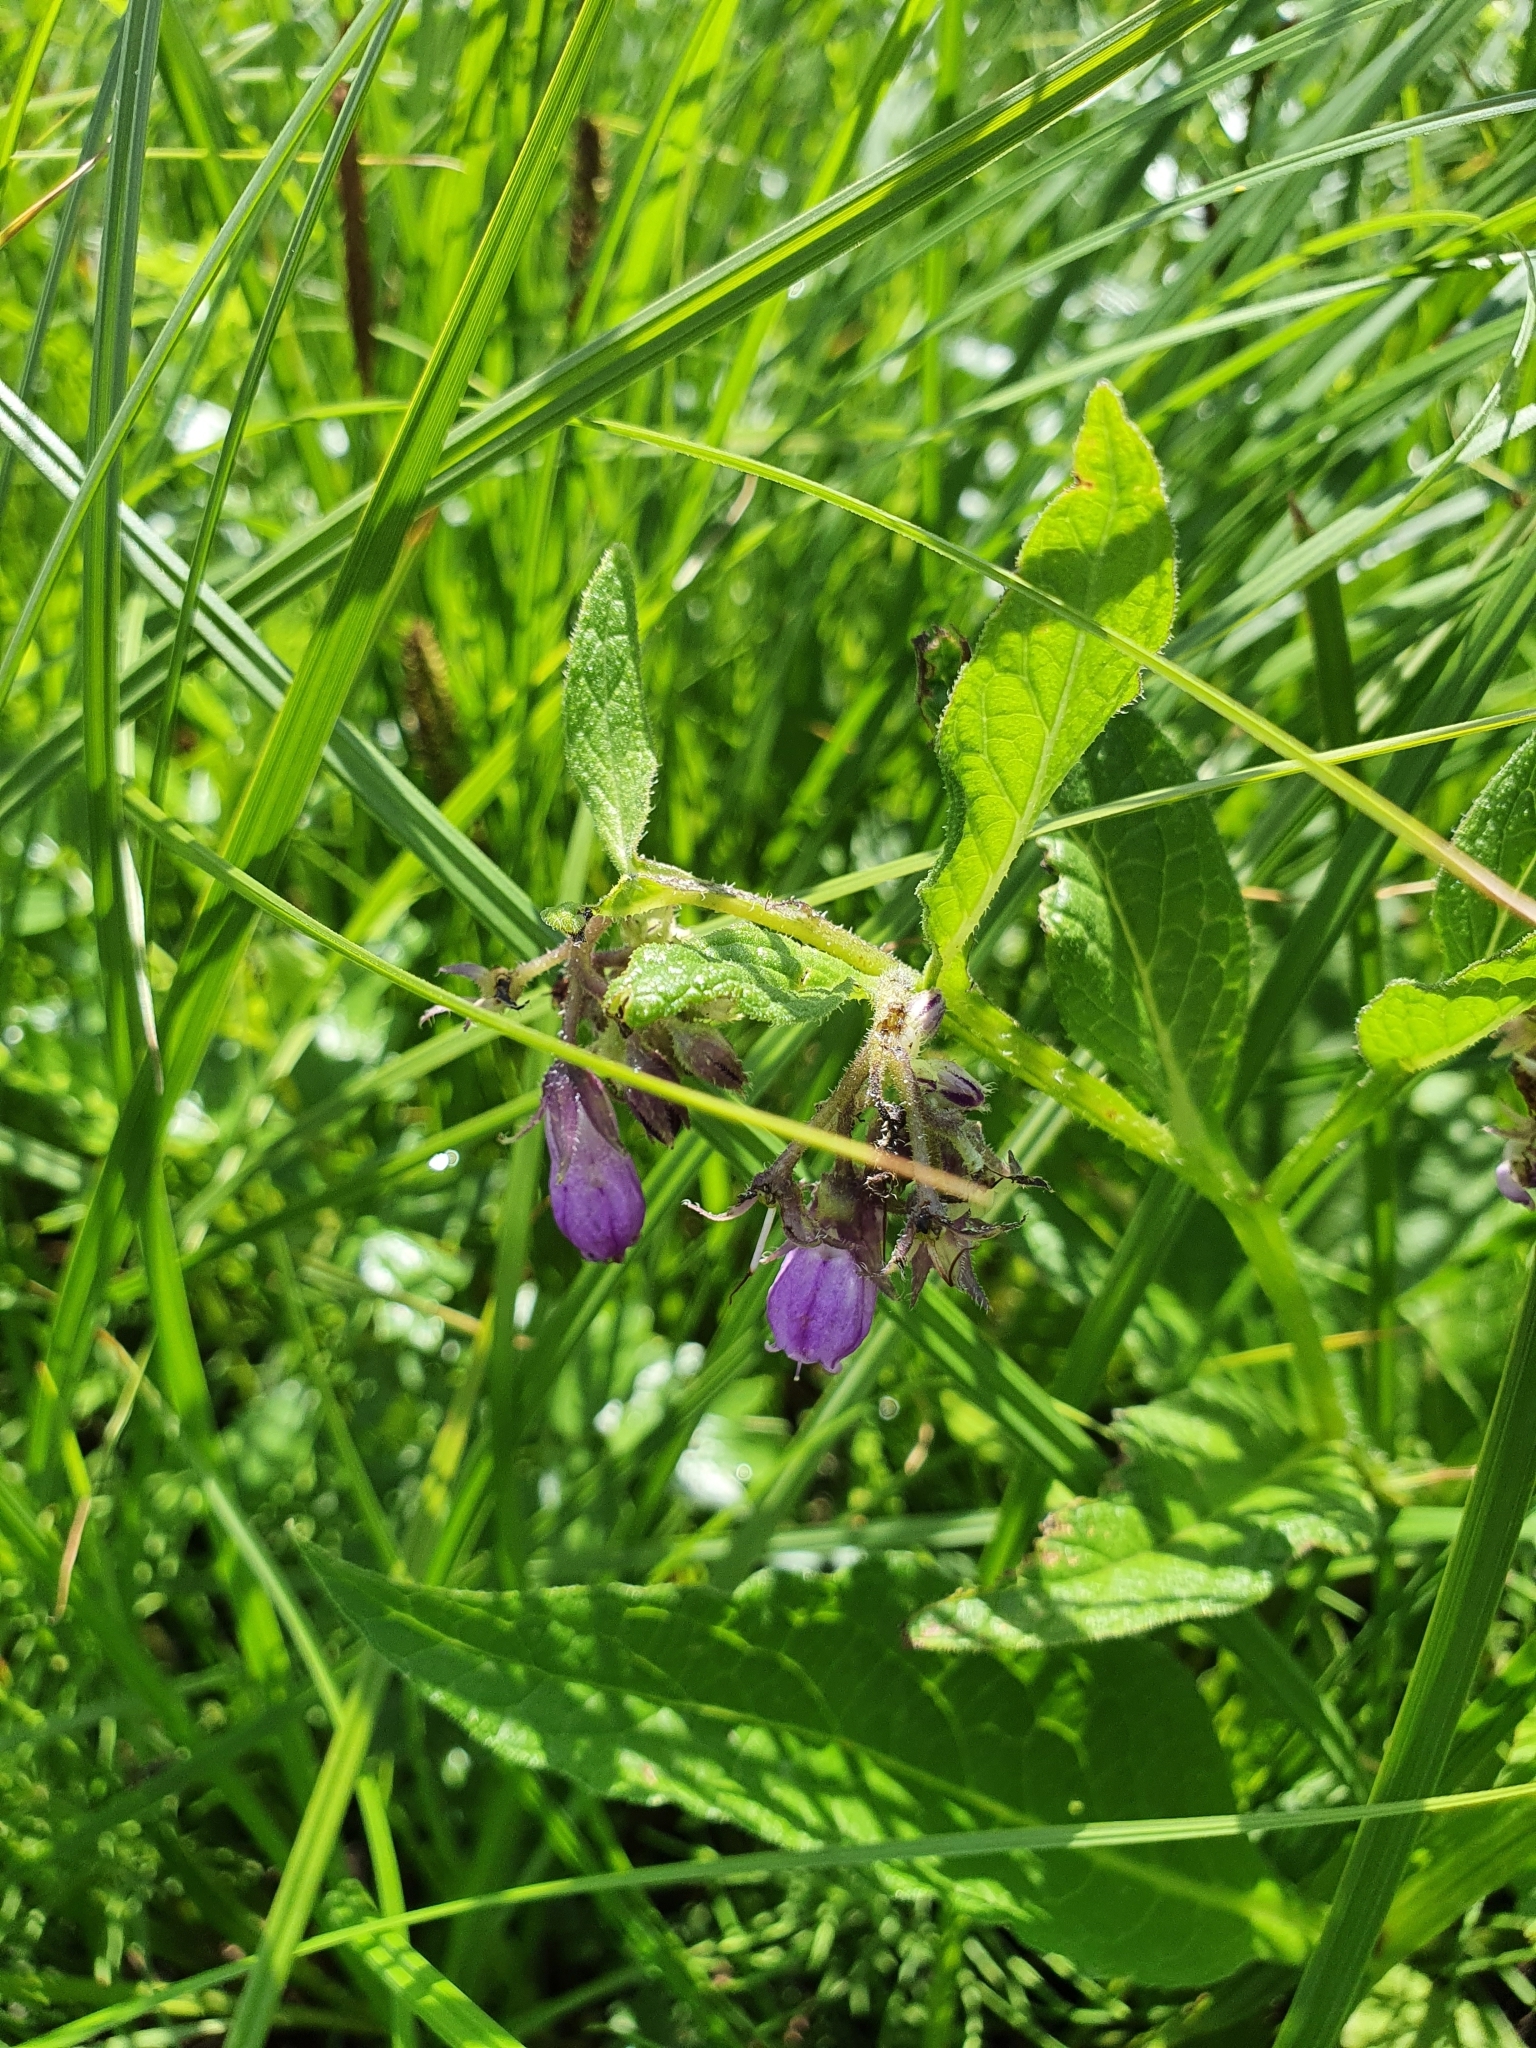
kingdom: Plantae
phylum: Tracheophyta
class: Magnoliopsida
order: Boraginales
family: Boraginaceae
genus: Symphytum
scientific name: Symphytum officinale
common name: Common comfrey
